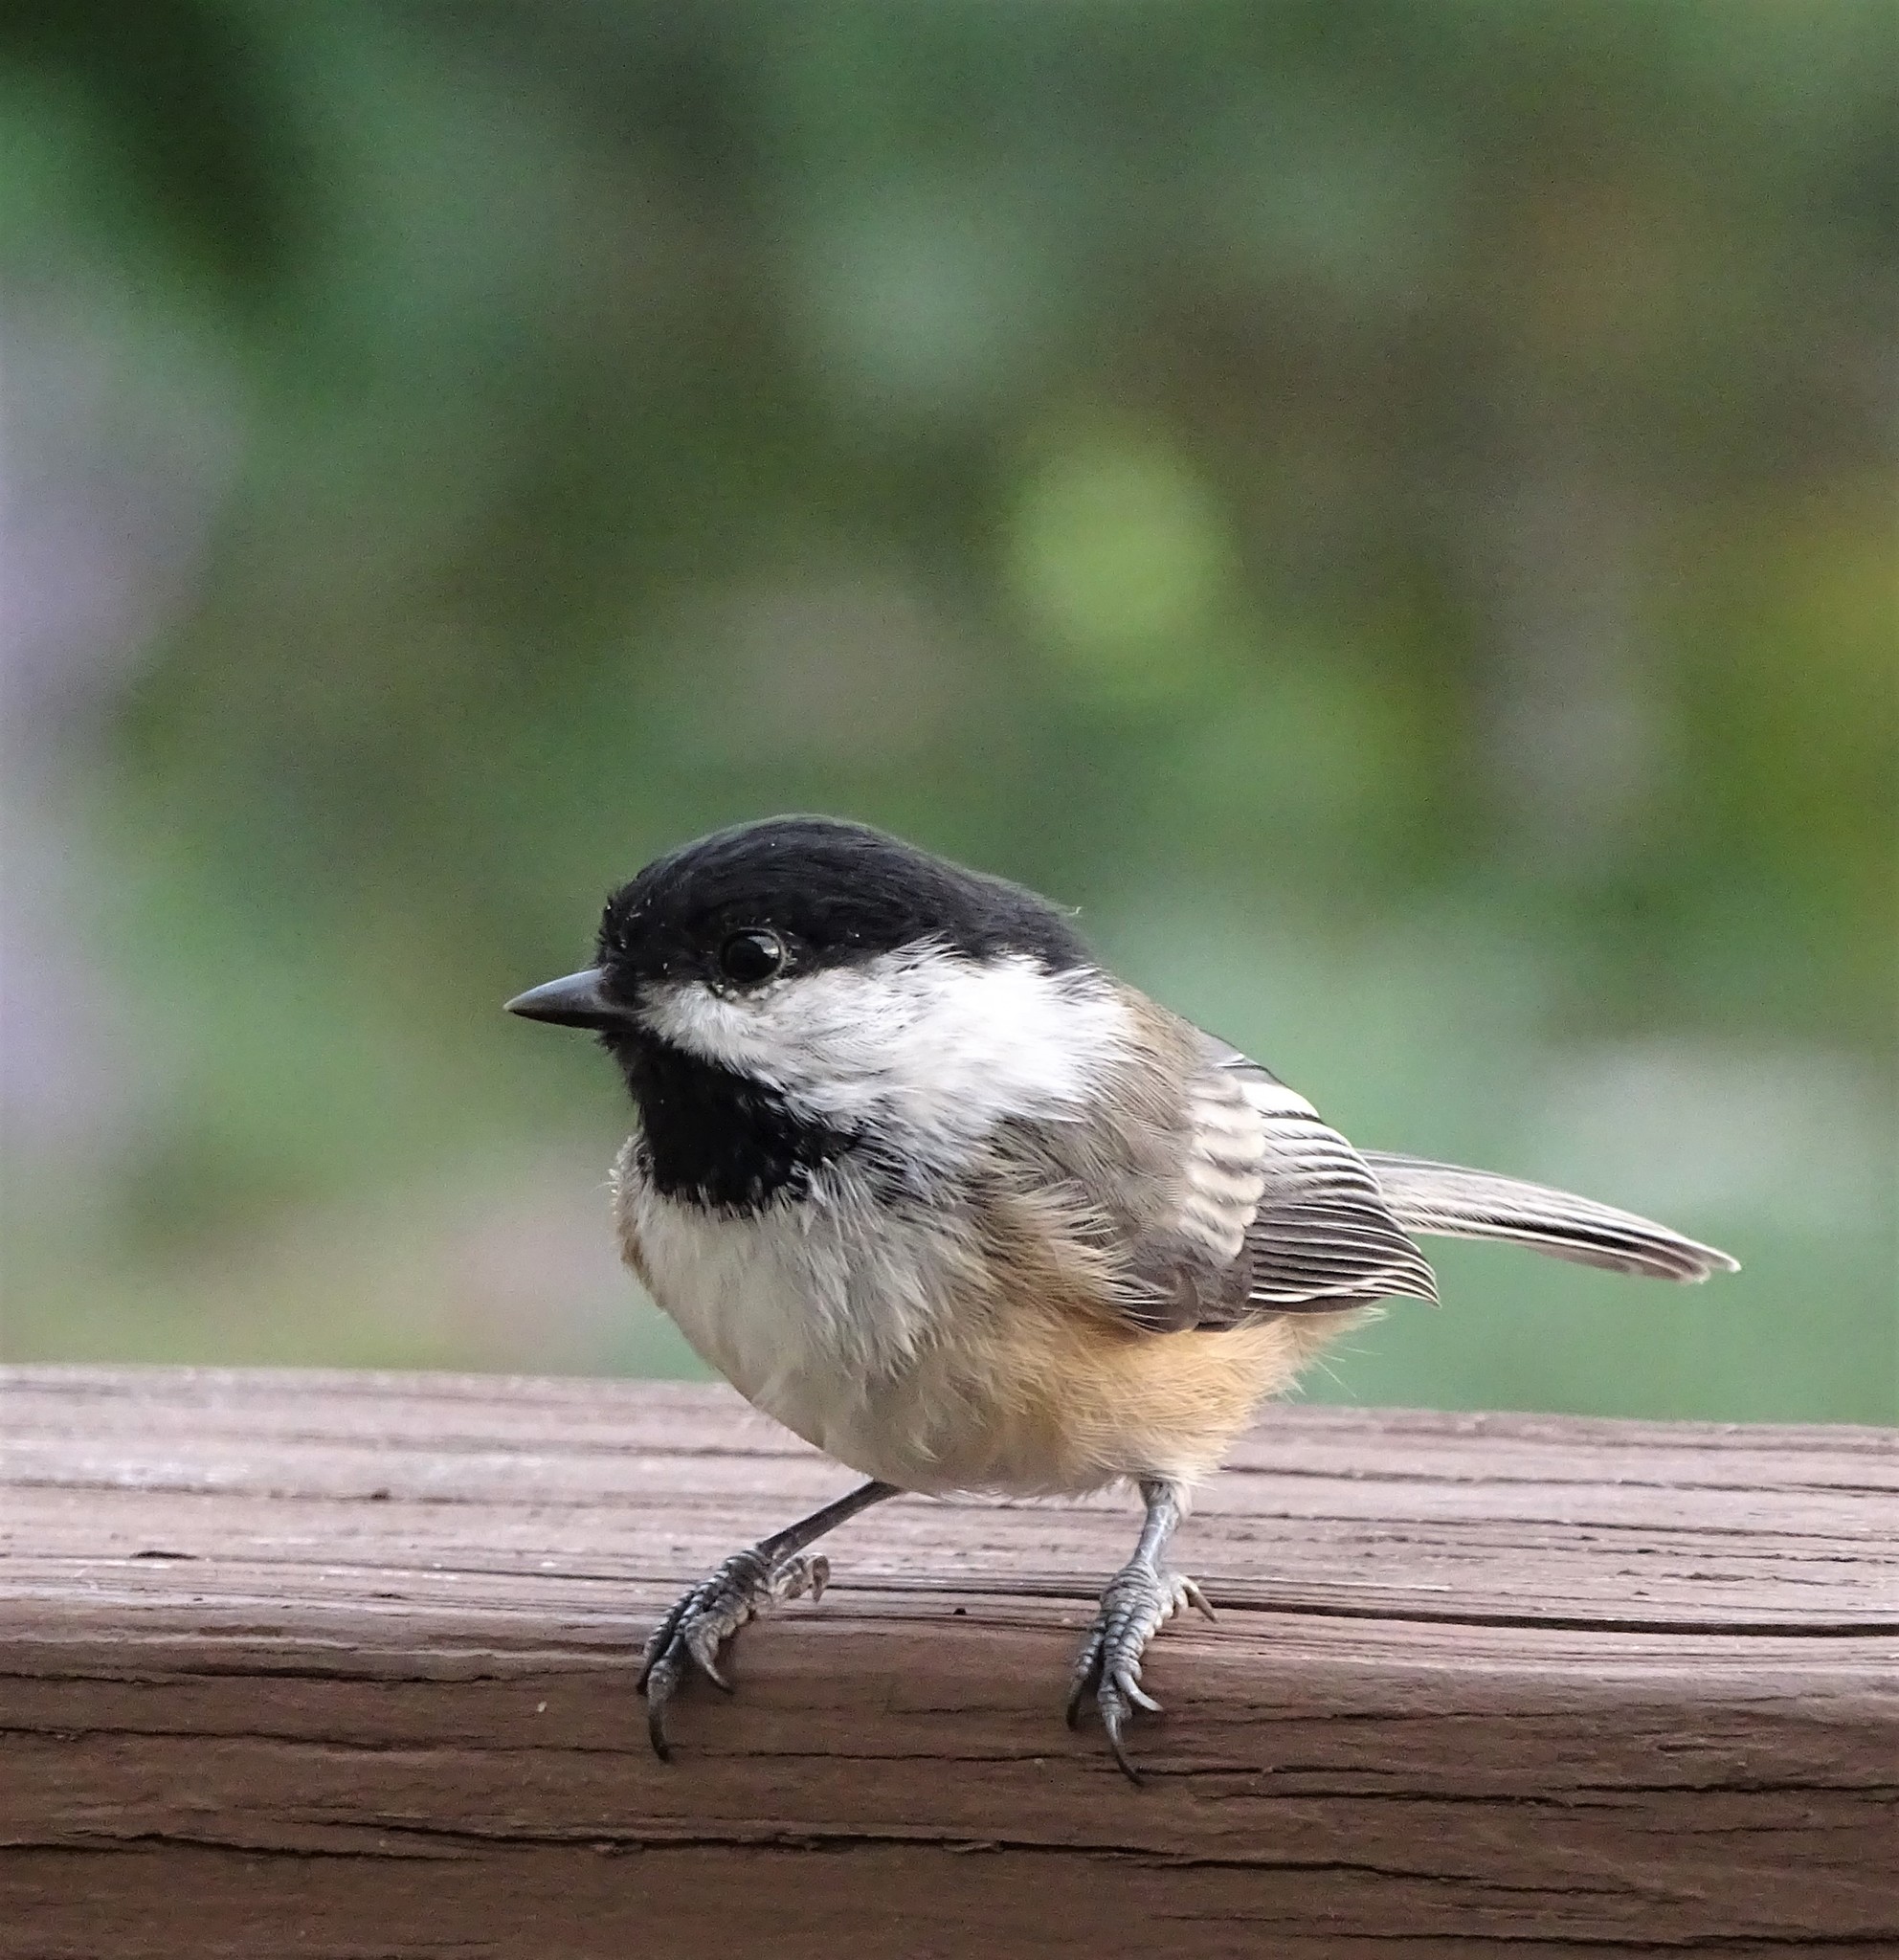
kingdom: Animalia
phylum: Chordata
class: Aves
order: Passeriformes
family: Paridae
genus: Poecile
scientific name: Poecile atricapillus
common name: Black-capped chickadee
